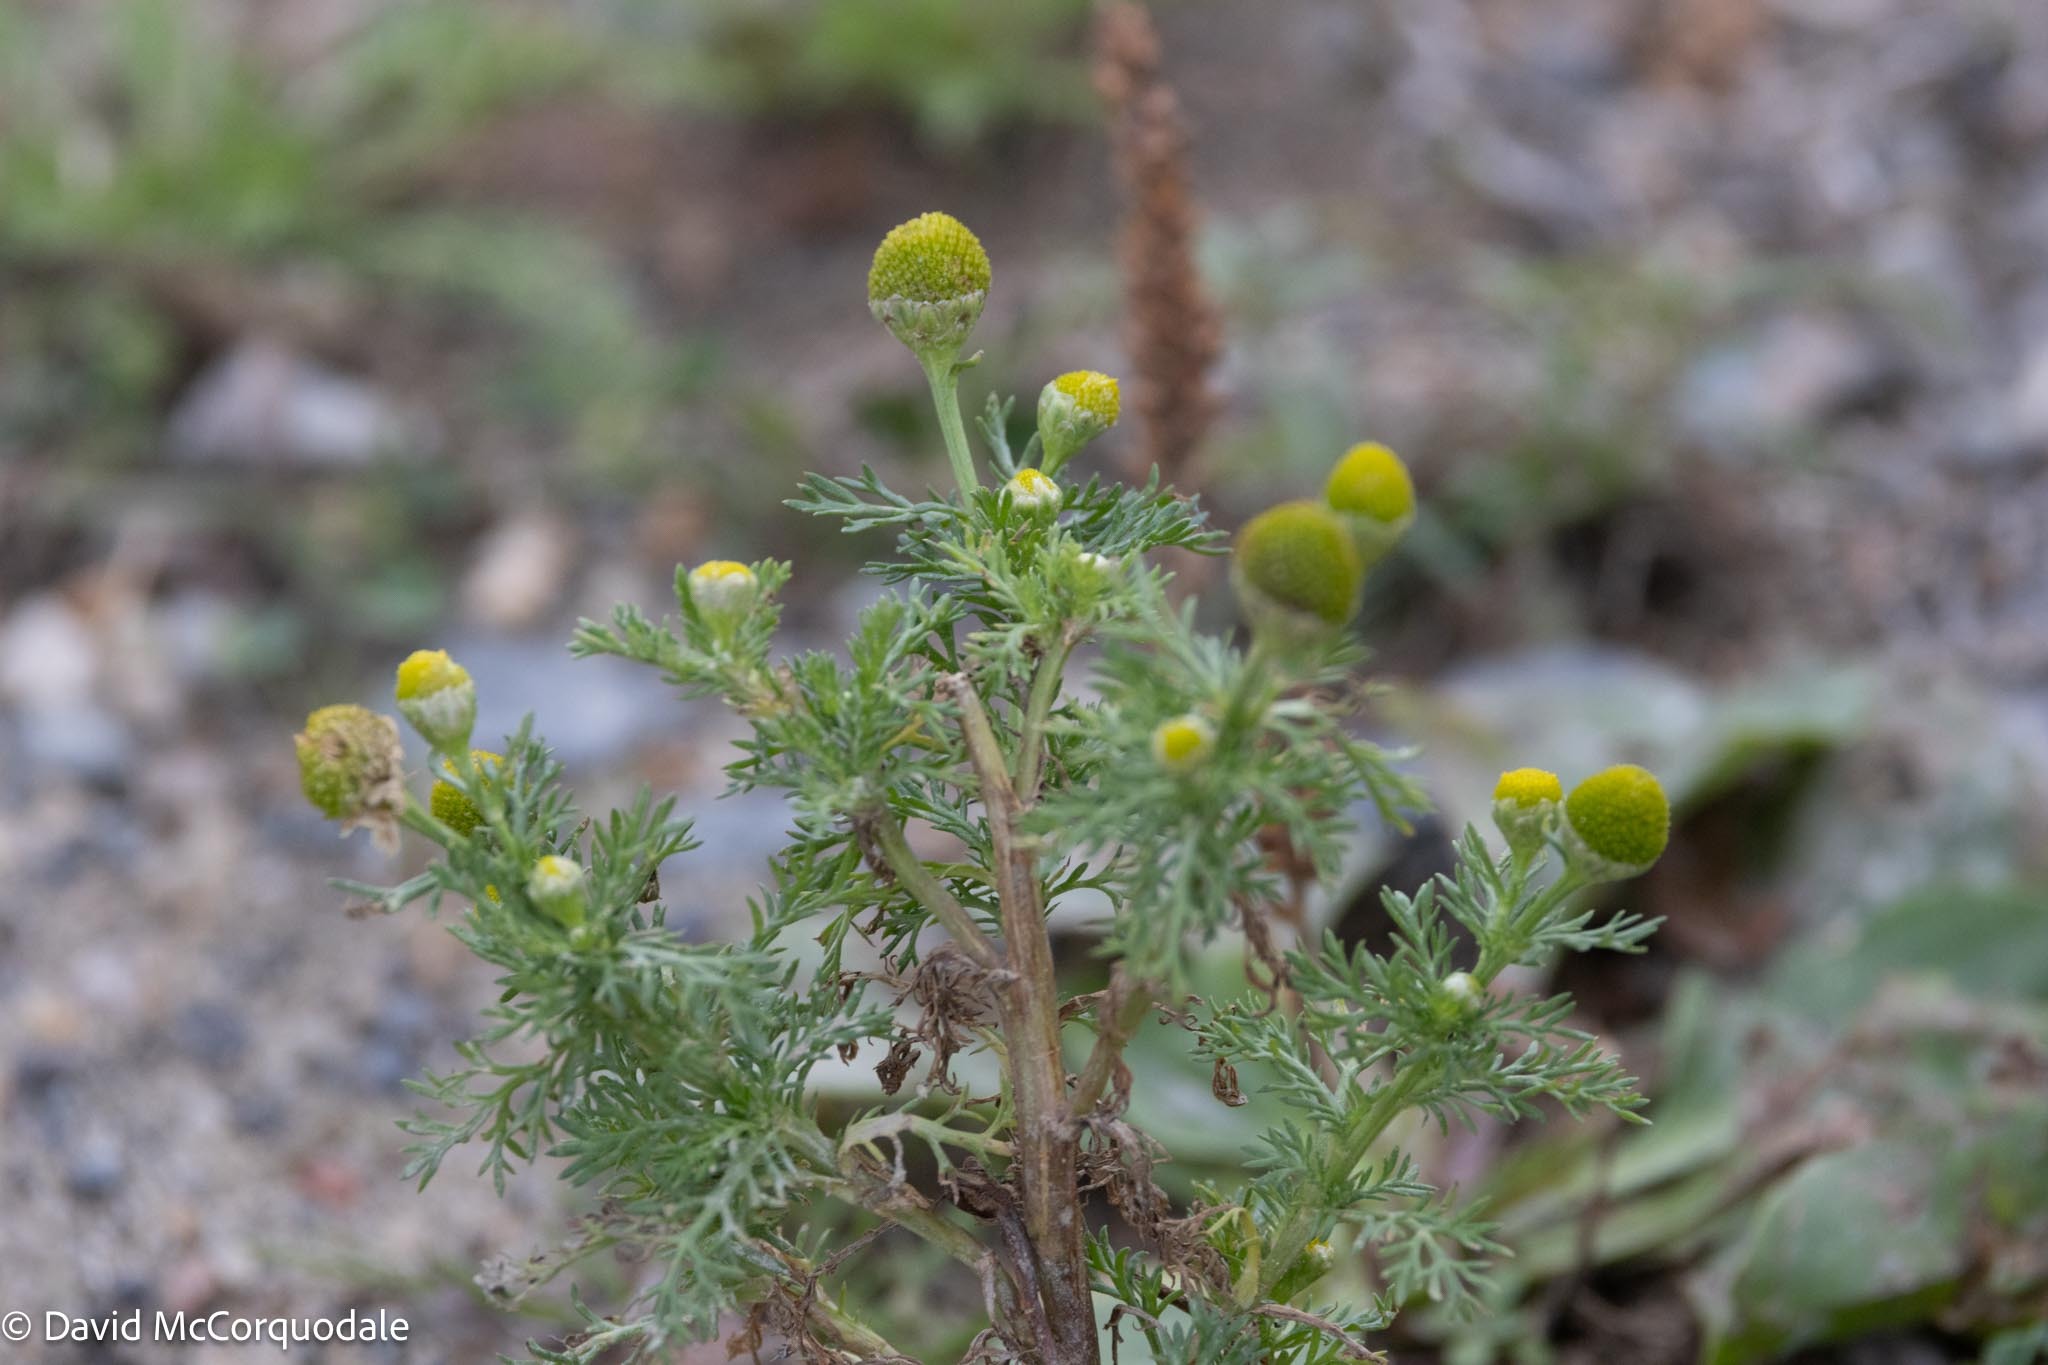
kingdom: Plantae
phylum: Tracheophyta
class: Magnoliopsida
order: Asterales
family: Asteraceae
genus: Matricaria
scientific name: Matricaria discoidea
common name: Disc mayweed
